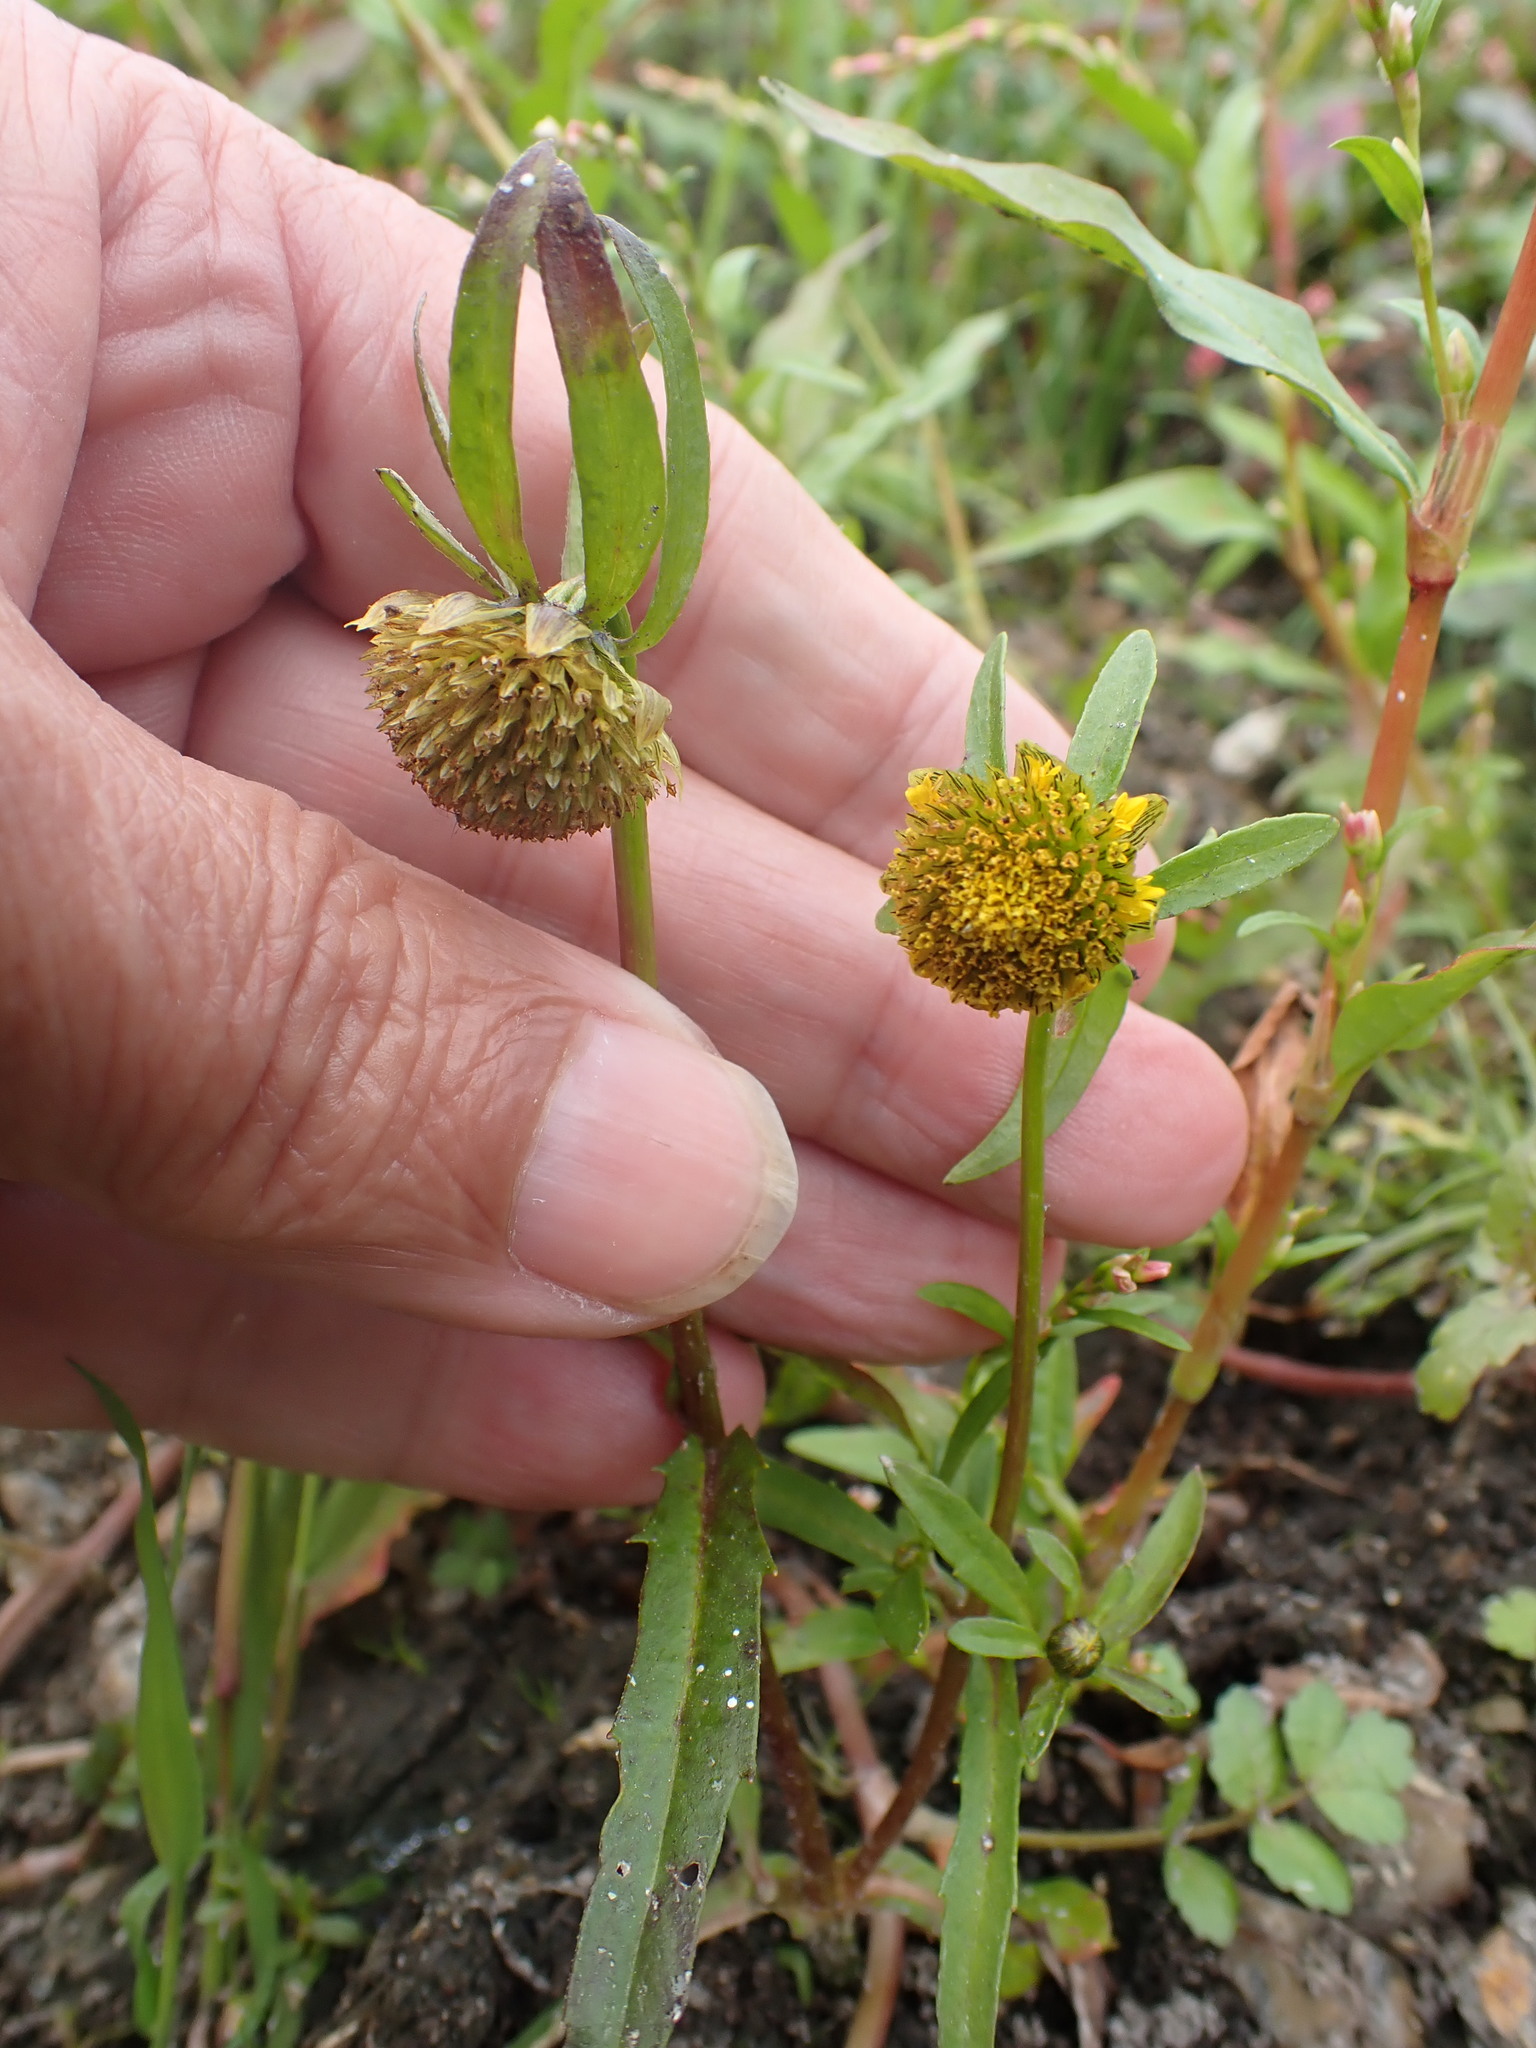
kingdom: Plantae
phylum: Tracheophyta
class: Magnoliopsida
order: Asterales
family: Asteraceae
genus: Bidens
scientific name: Bidens cernua
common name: Nodding bur-marigold
